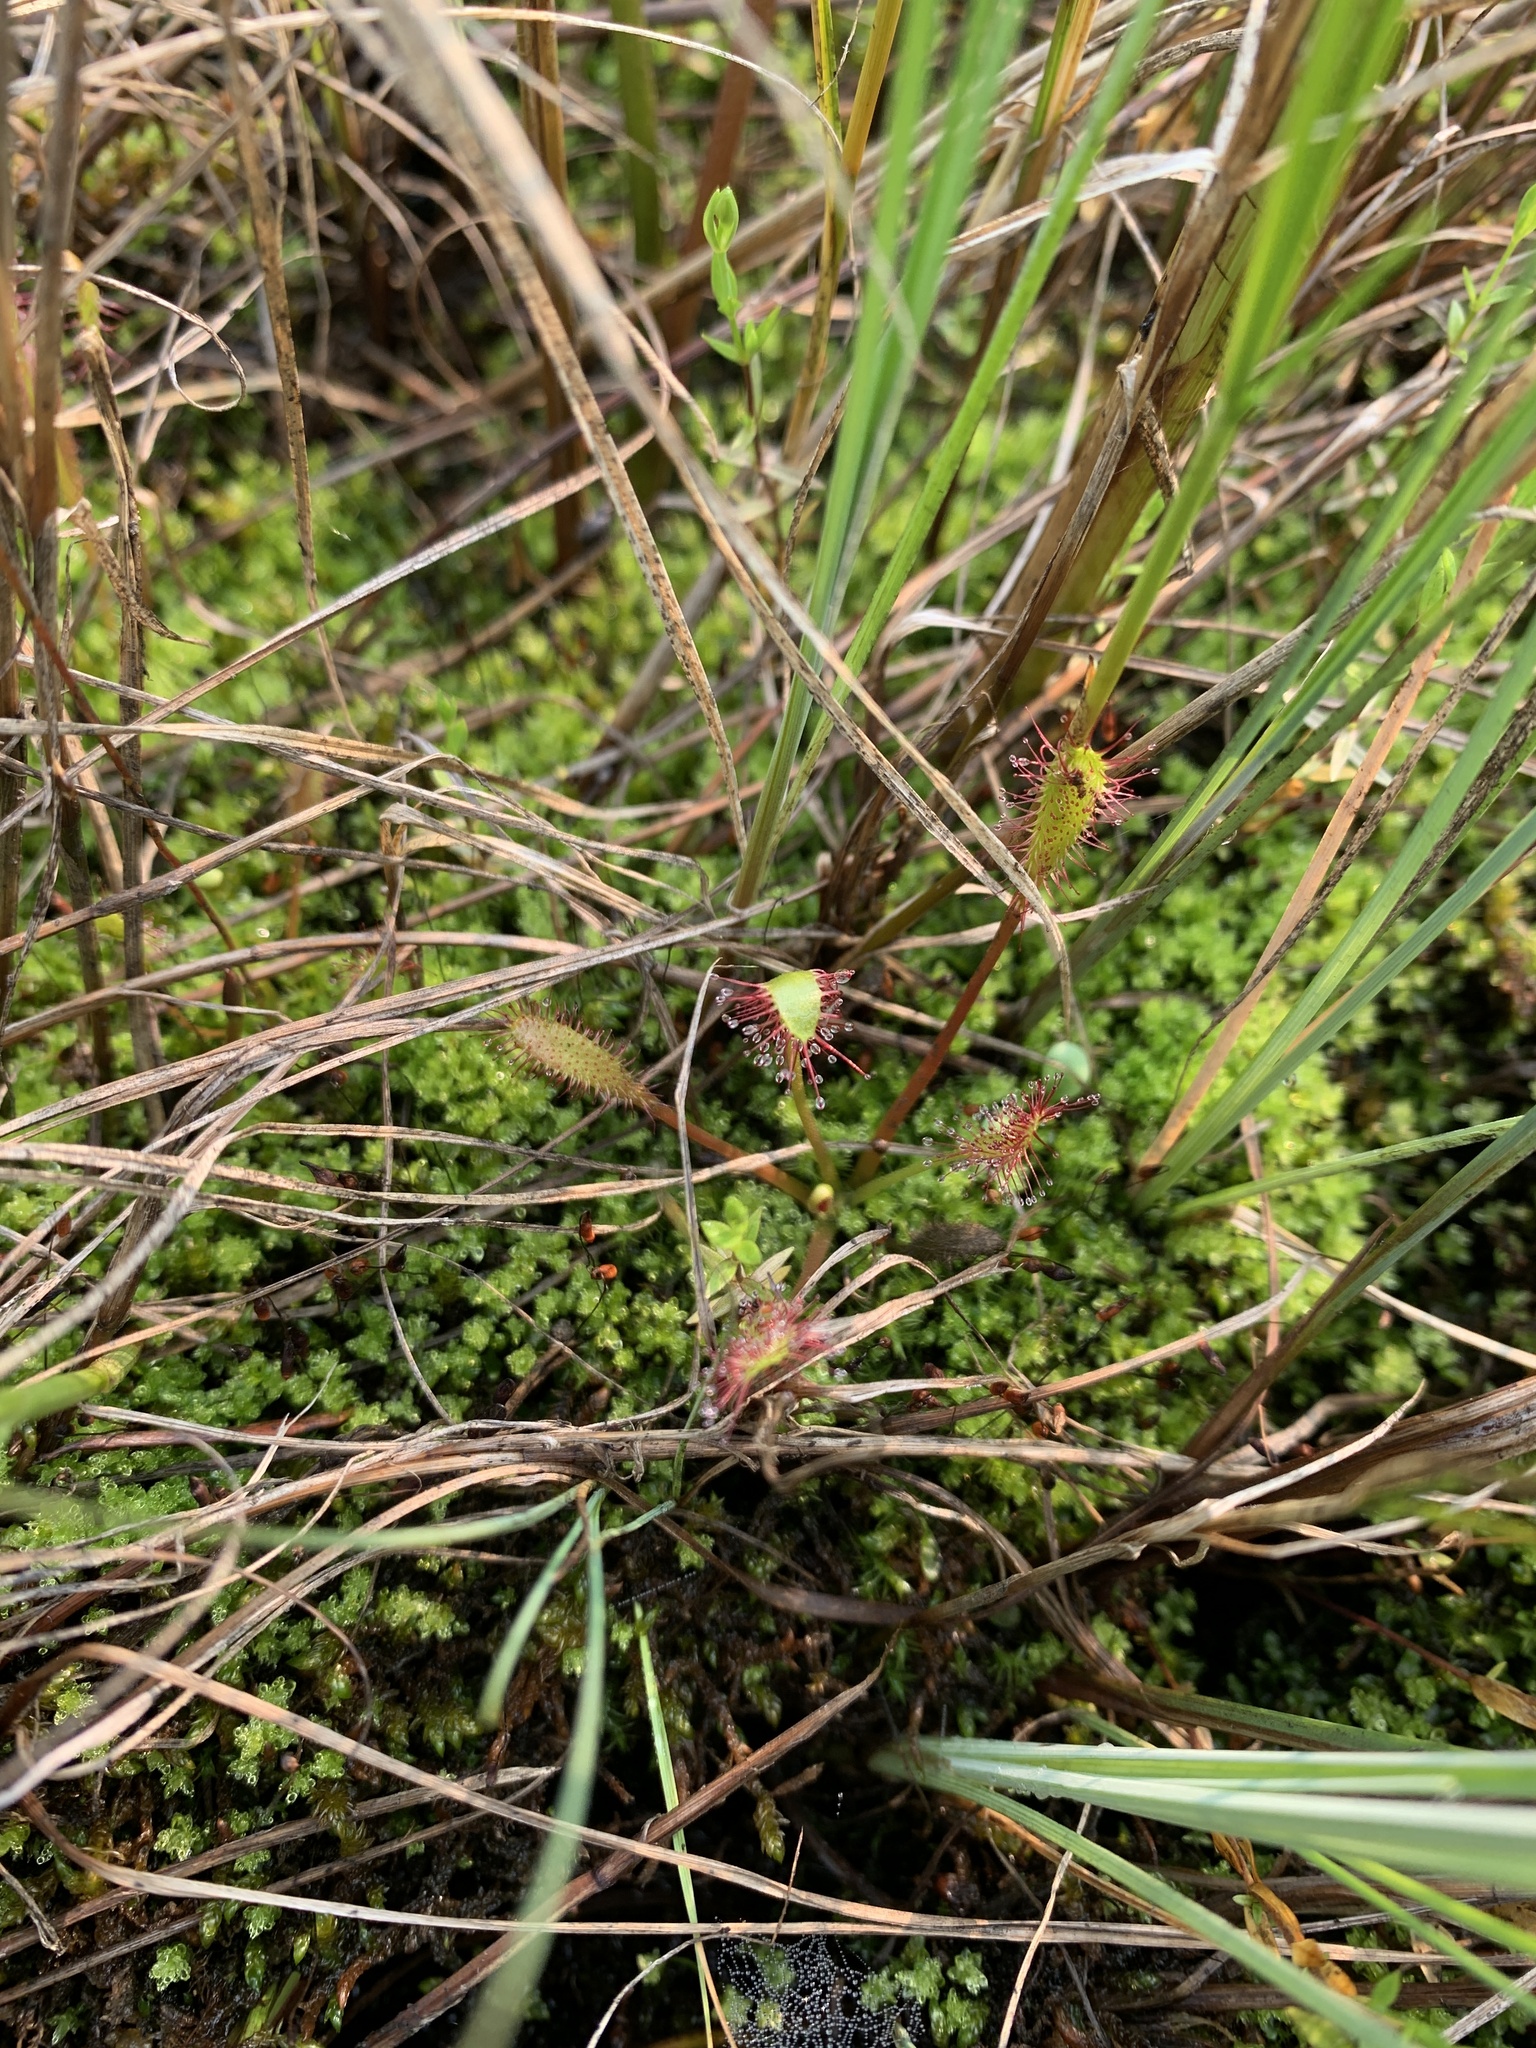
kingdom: Plantae
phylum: Tracheophyta
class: Magnoliopsida
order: Caryophyllales
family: Droseraceae
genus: Drosera
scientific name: Drosera anglica
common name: Great sundew
